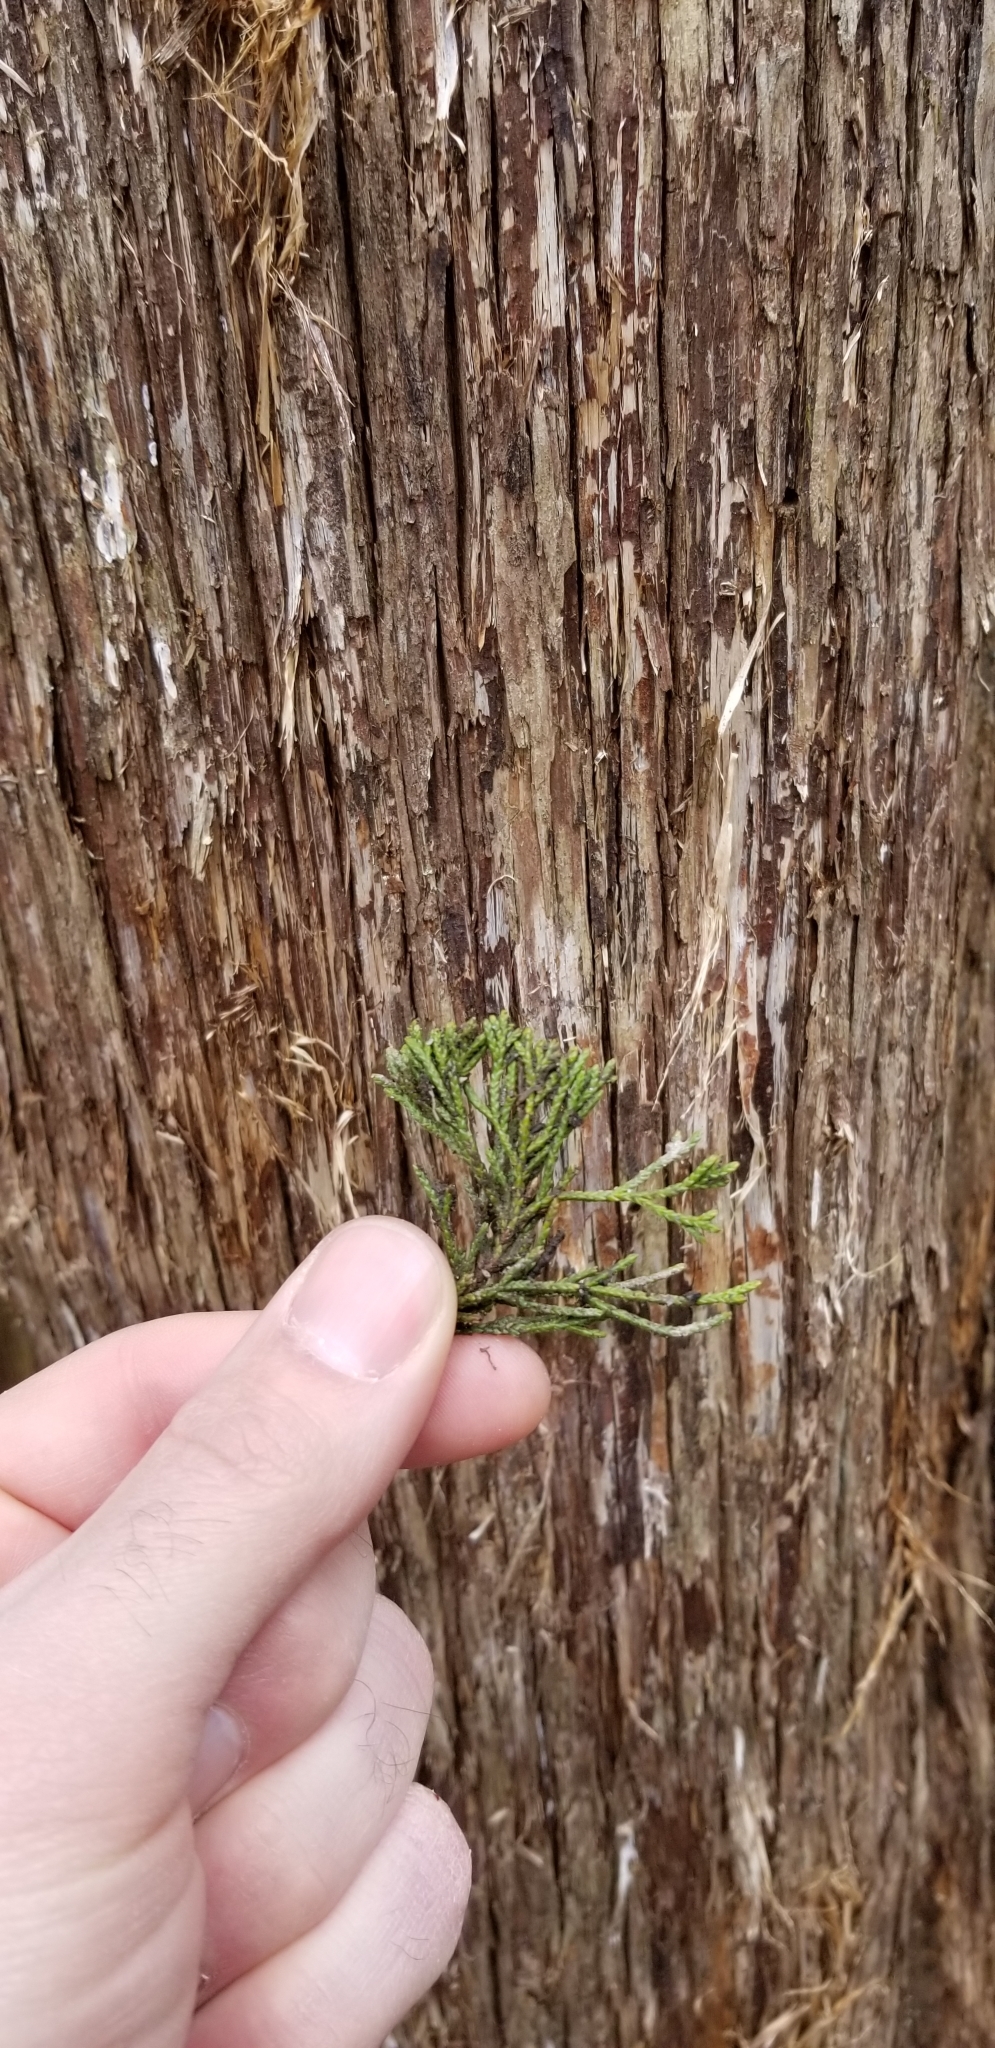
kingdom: Plantae
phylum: Tracheophyta
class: Pinopsida
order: Pinales
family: Cupressaceae
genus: Juniperus
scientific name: Juniperus virginiana
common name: Red juniper
